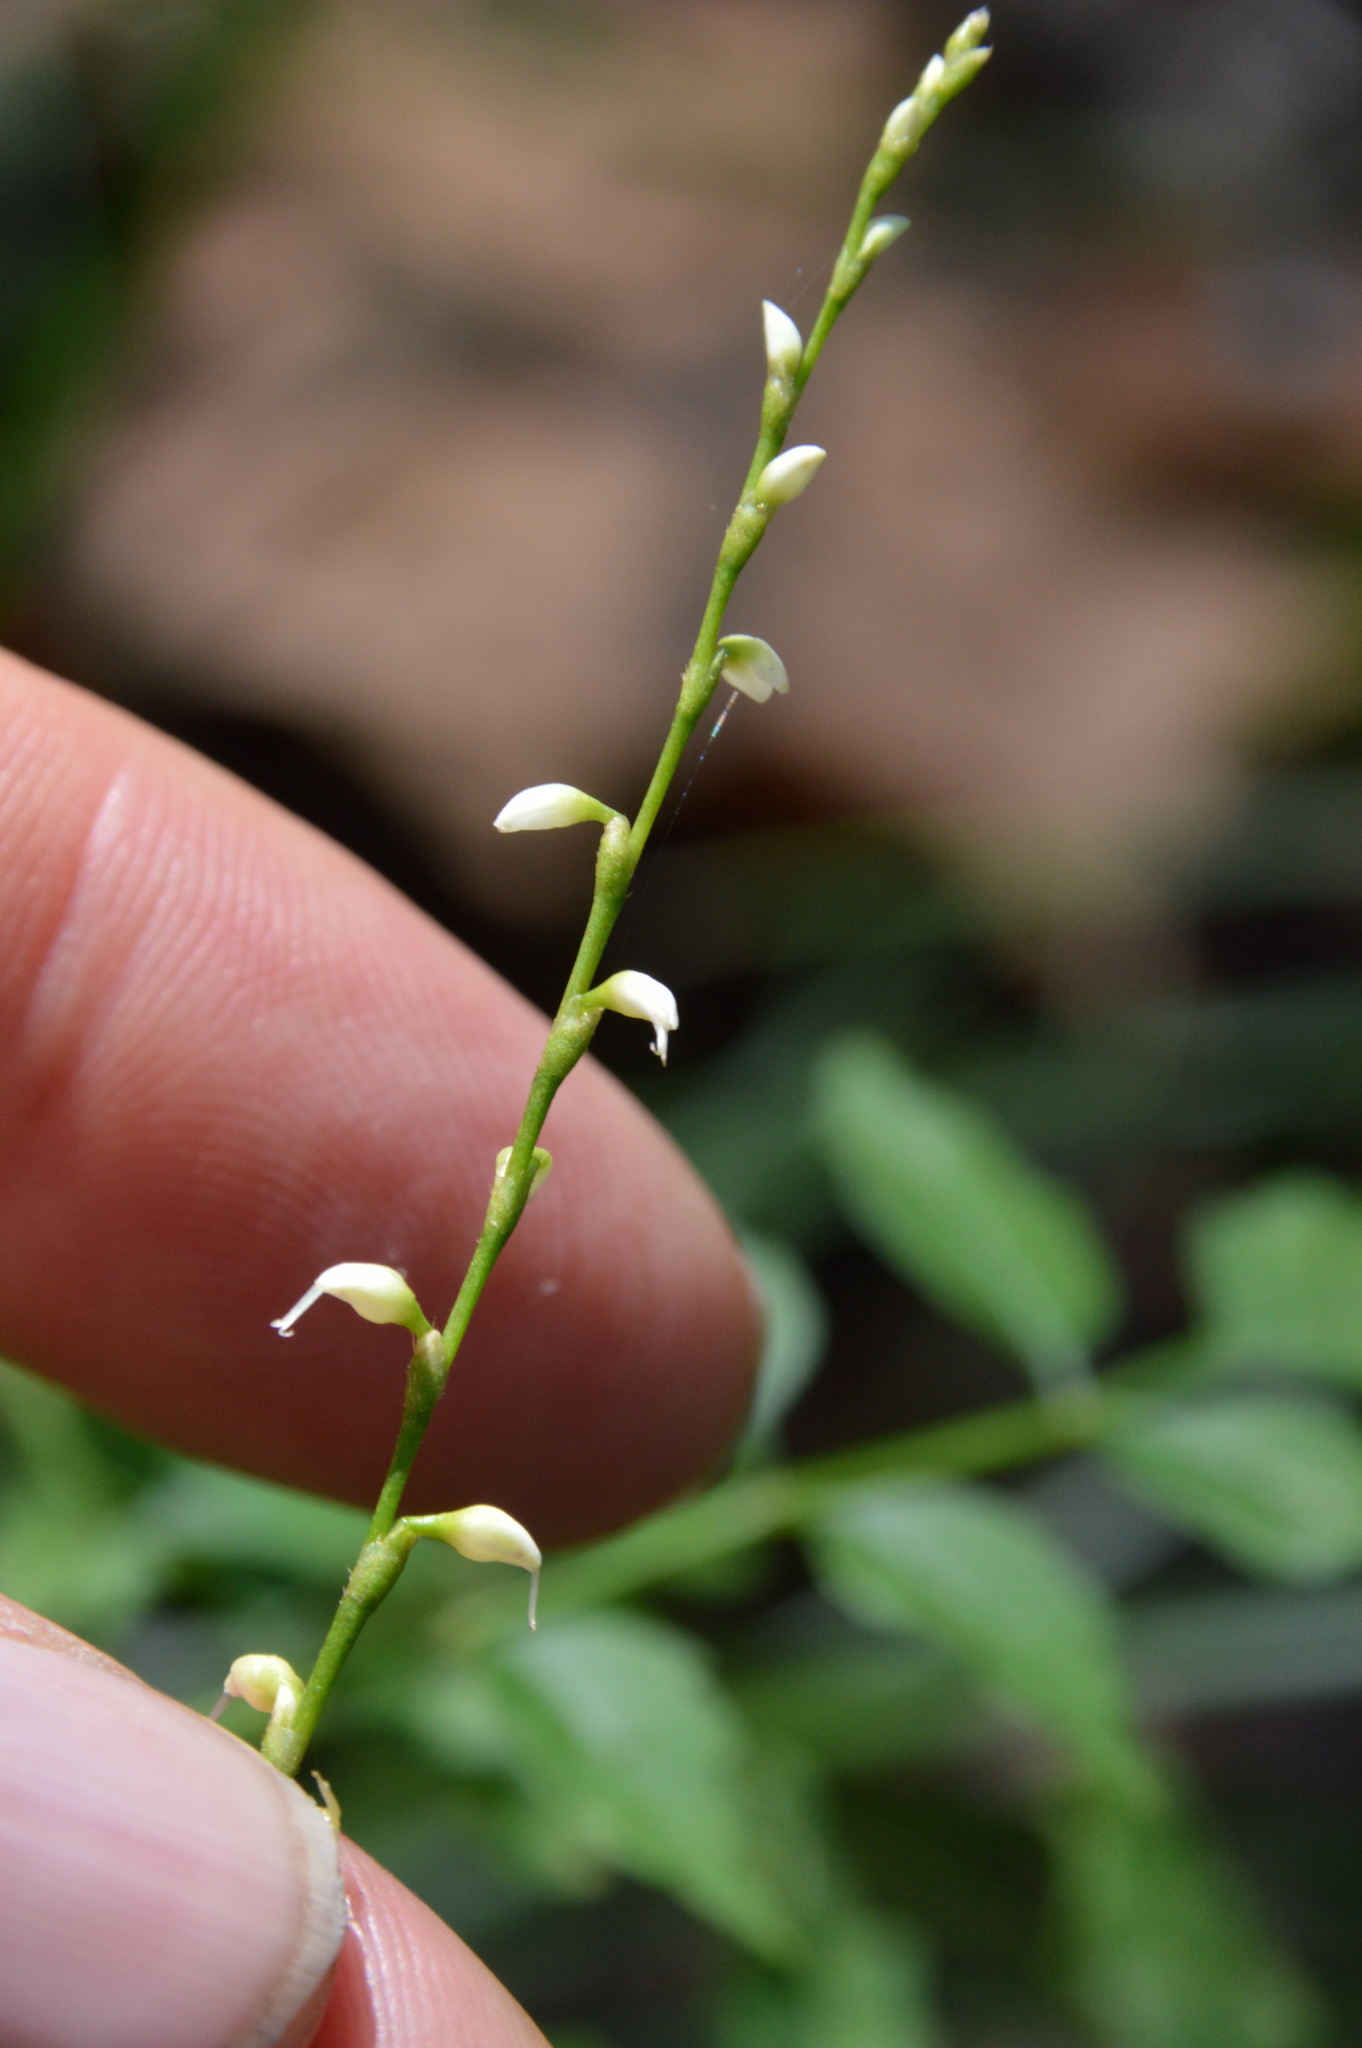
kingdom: Plantae
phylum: Tracheophyta
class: Magnoliopsida
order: Caryophyllales
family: Polygonaceae
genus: Persicaria
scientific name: Persicaria virginiana
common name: Jumpseed
